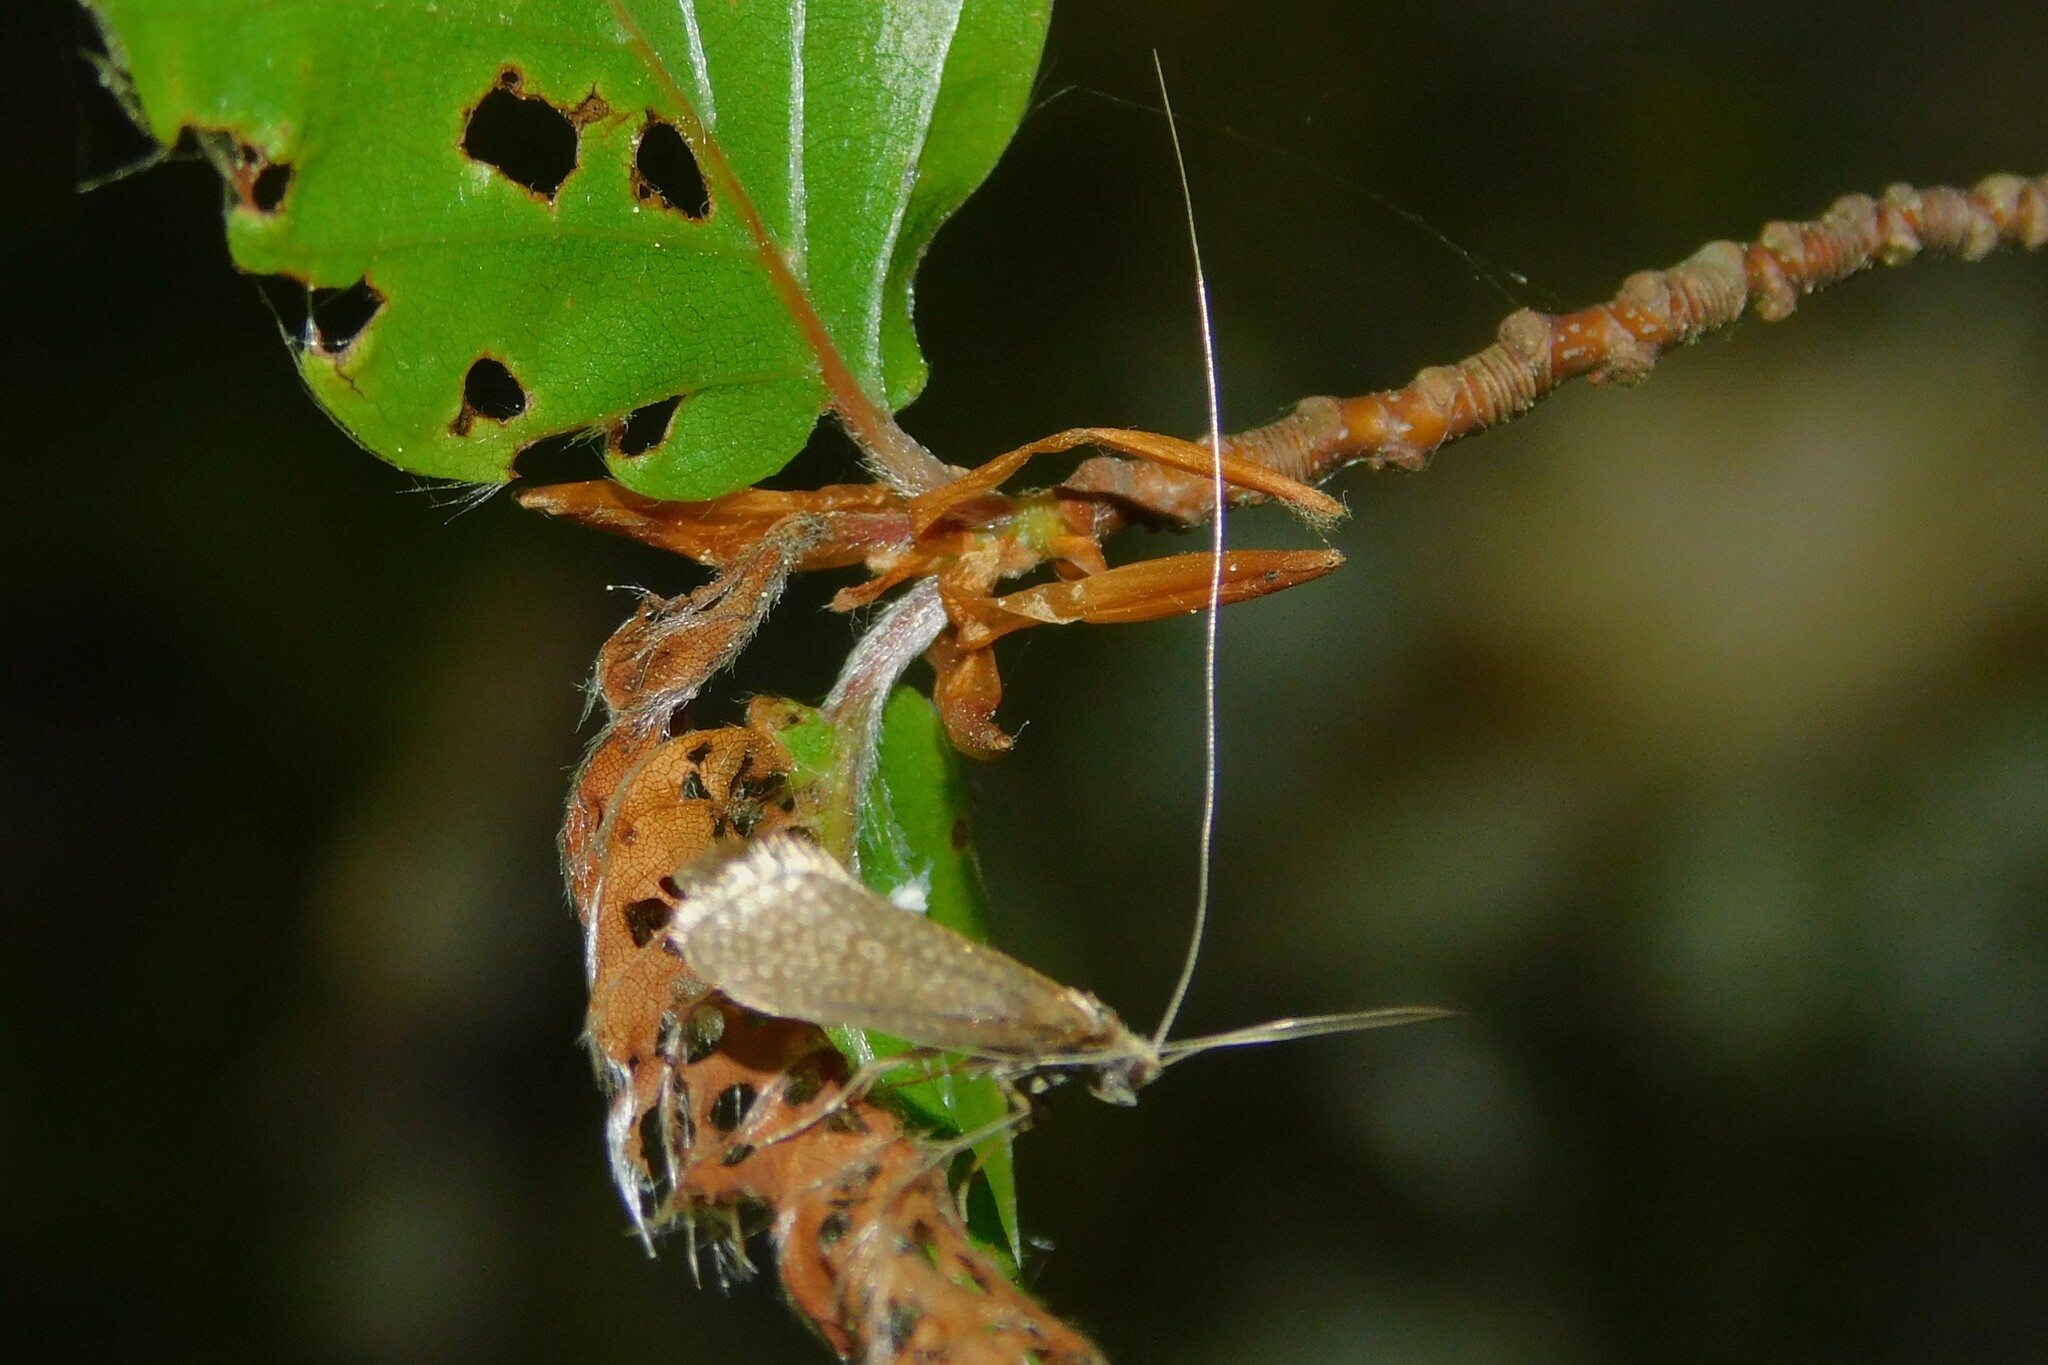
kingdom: Animalia
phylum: Arthropoda
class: Insecta
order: Lepidoptera
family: Adelidae
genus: Nematopogon
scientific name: Nematopogon adansoniella
